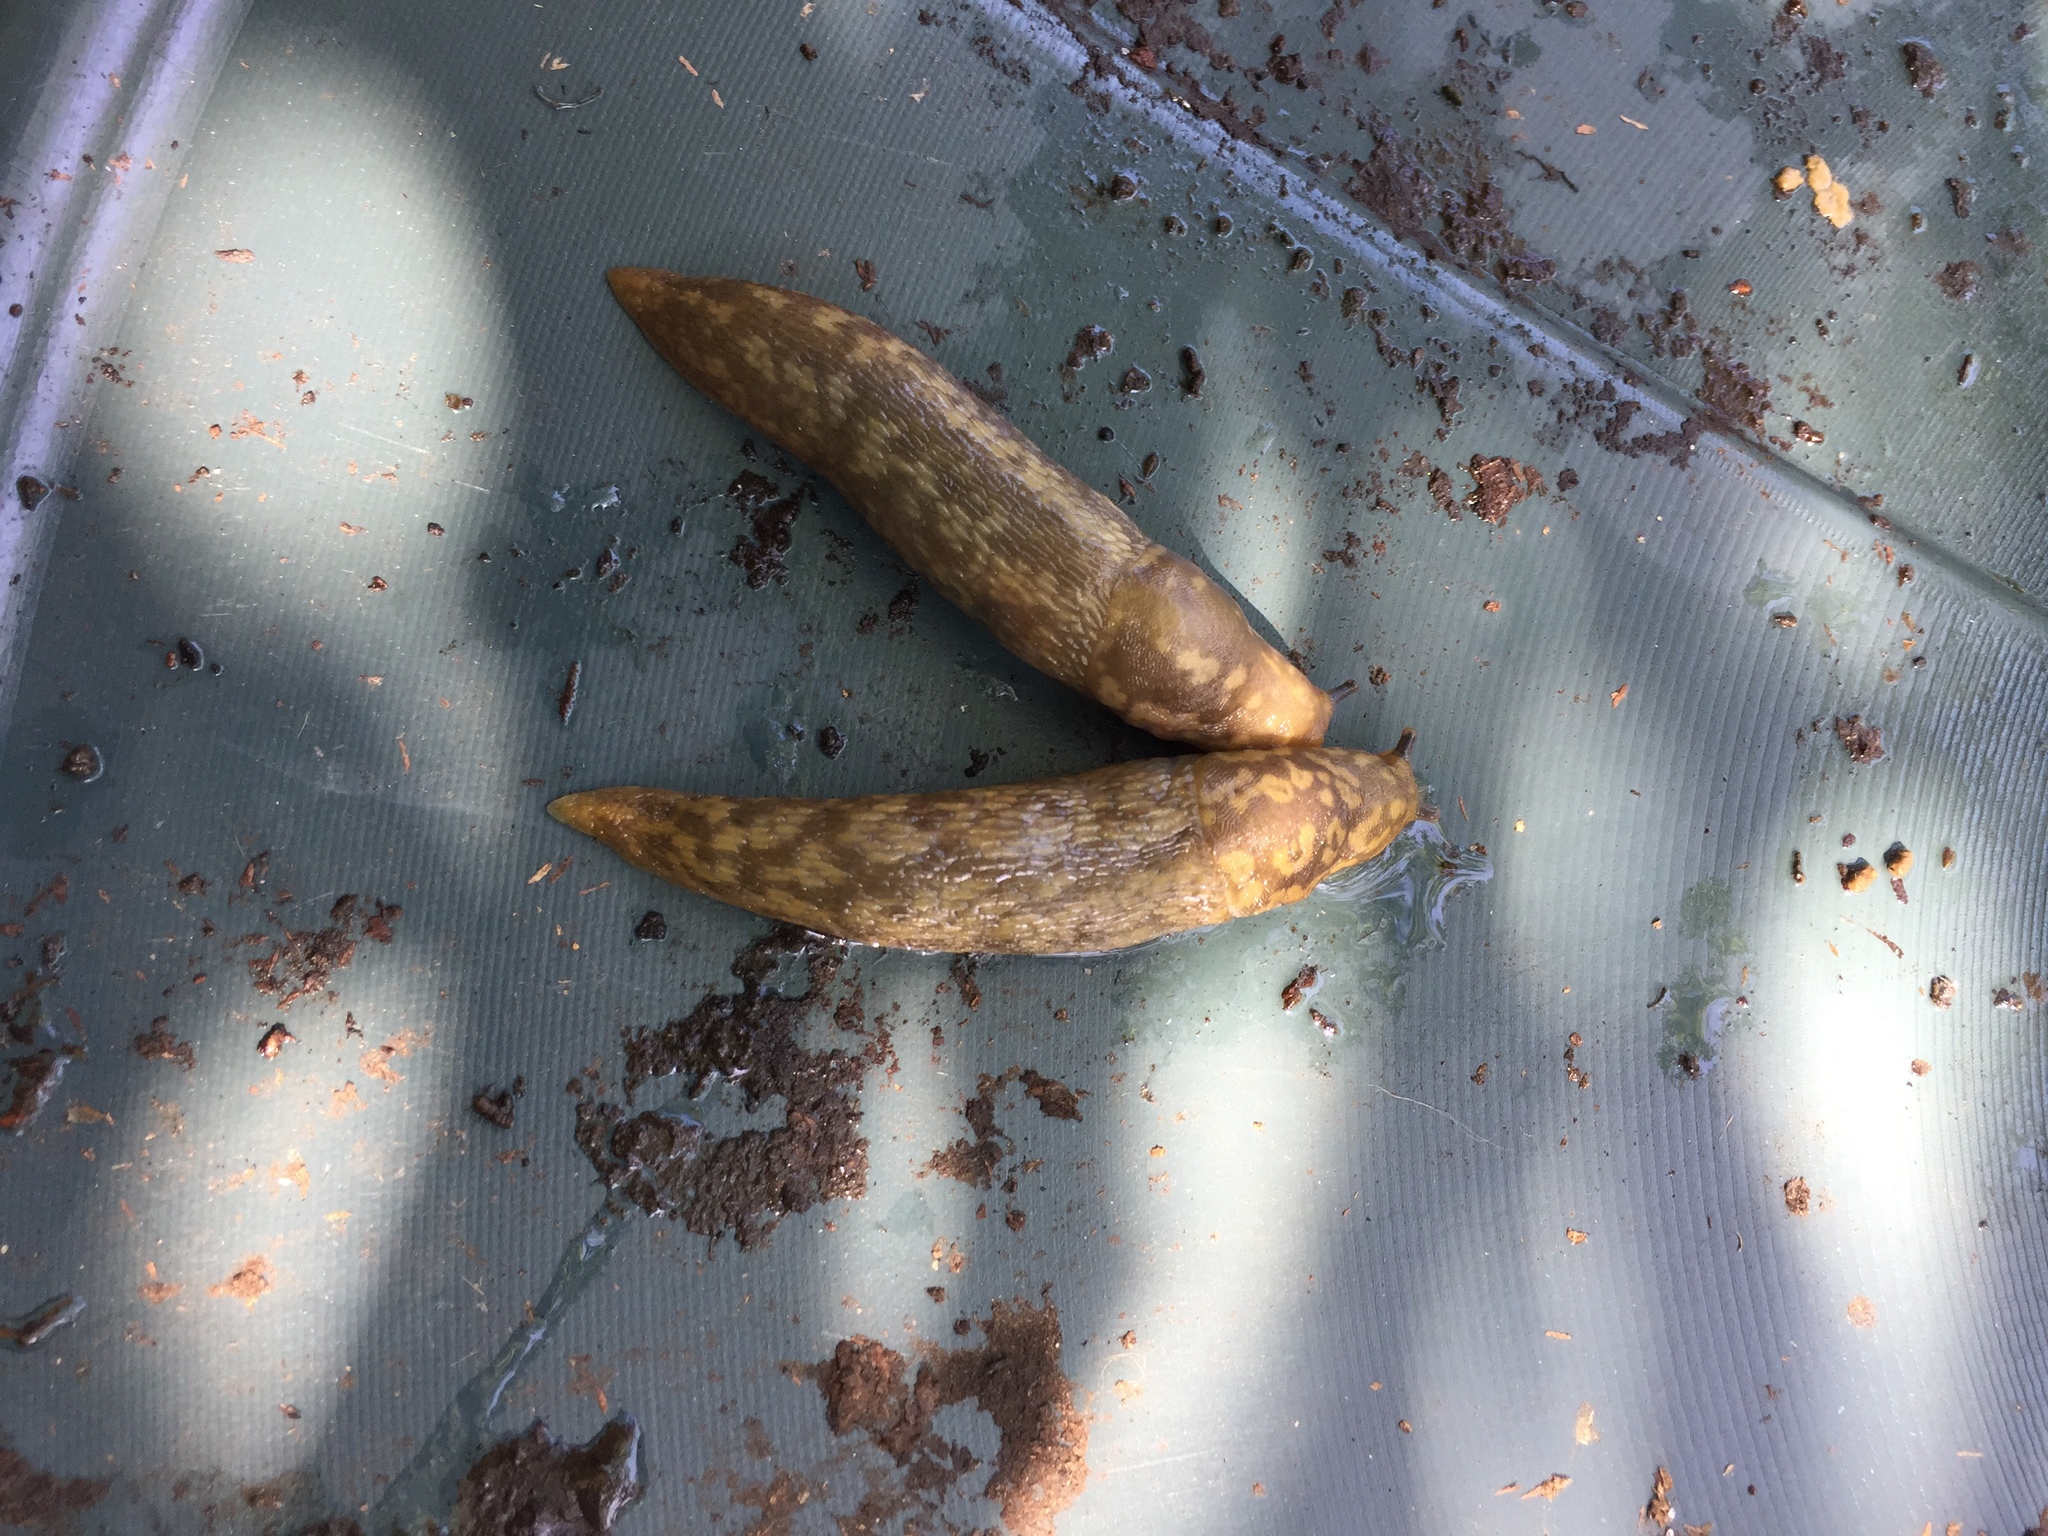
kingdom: Animalia
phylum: Mollusca
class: Gastropoda
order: Stylommatophora
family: Limacidae
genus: Limacus
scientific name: Limacus maculatus
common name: Irish yellow slug
